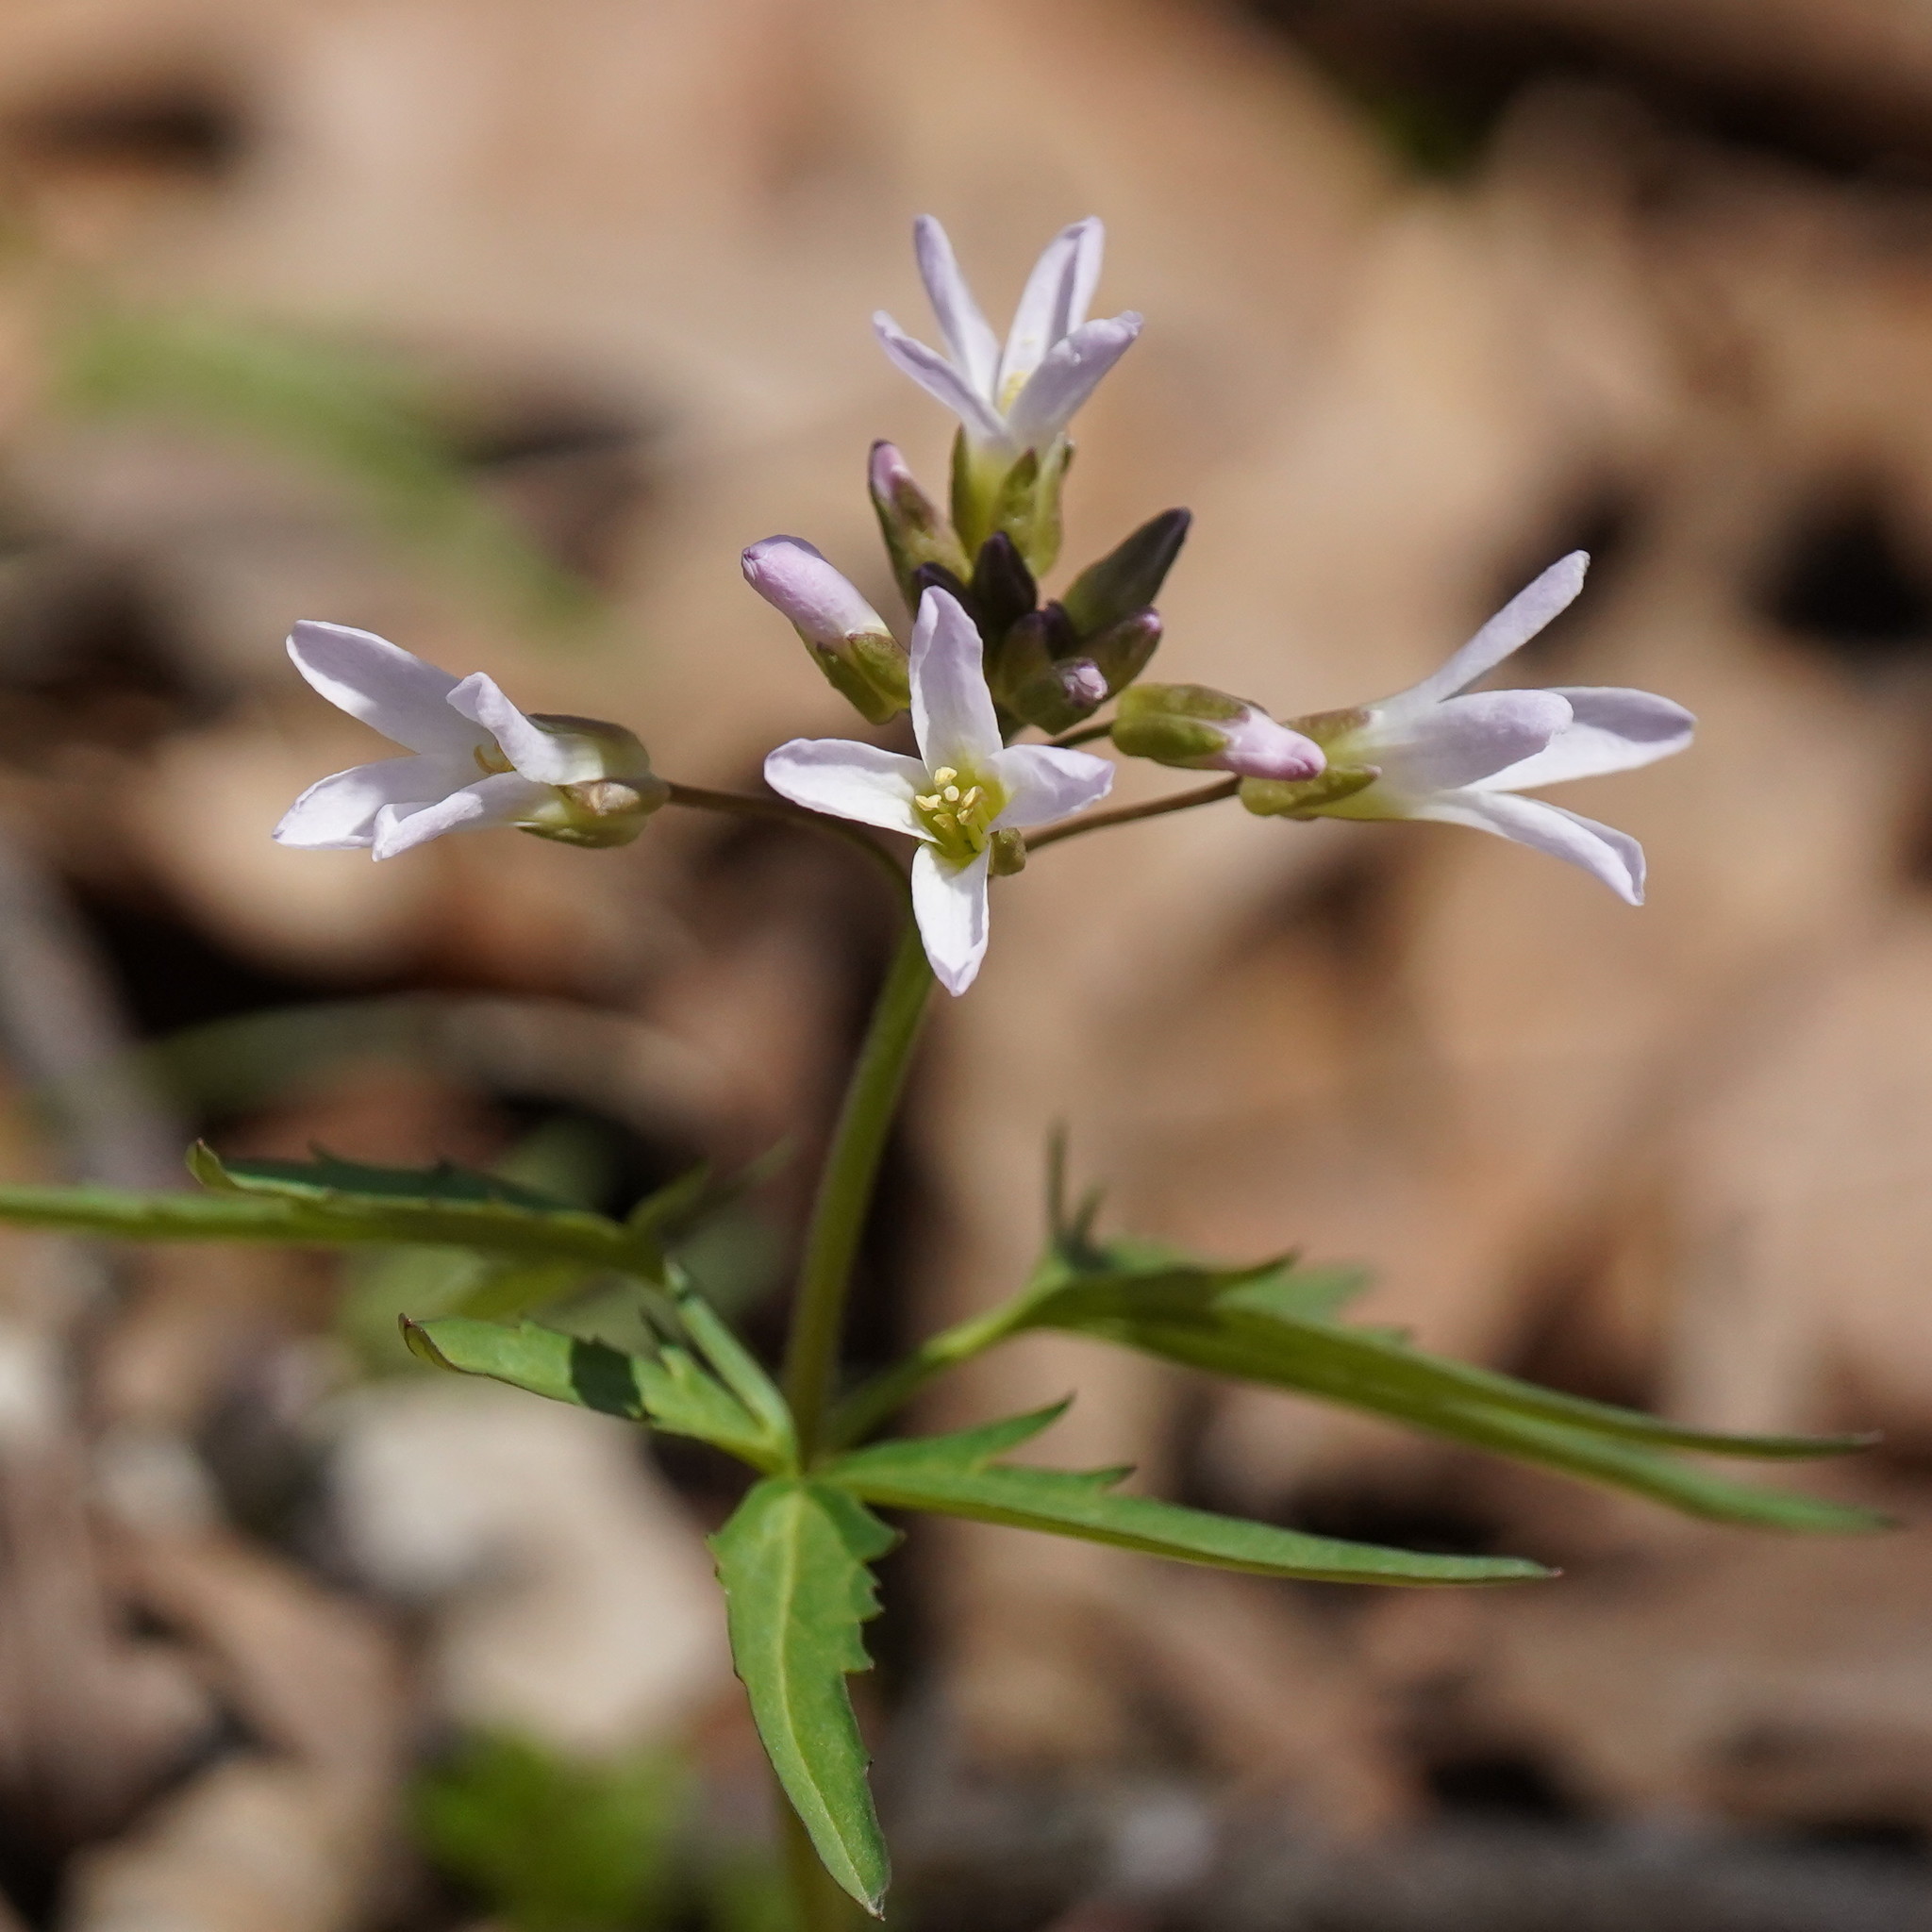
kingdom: Plantae
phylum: Tracheophyta
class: Magnoliopsida
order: Brassicales
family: Brassicaceae
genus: Cardamine
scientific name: Cardamine concatenata
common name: Cut-leaf toothcup
